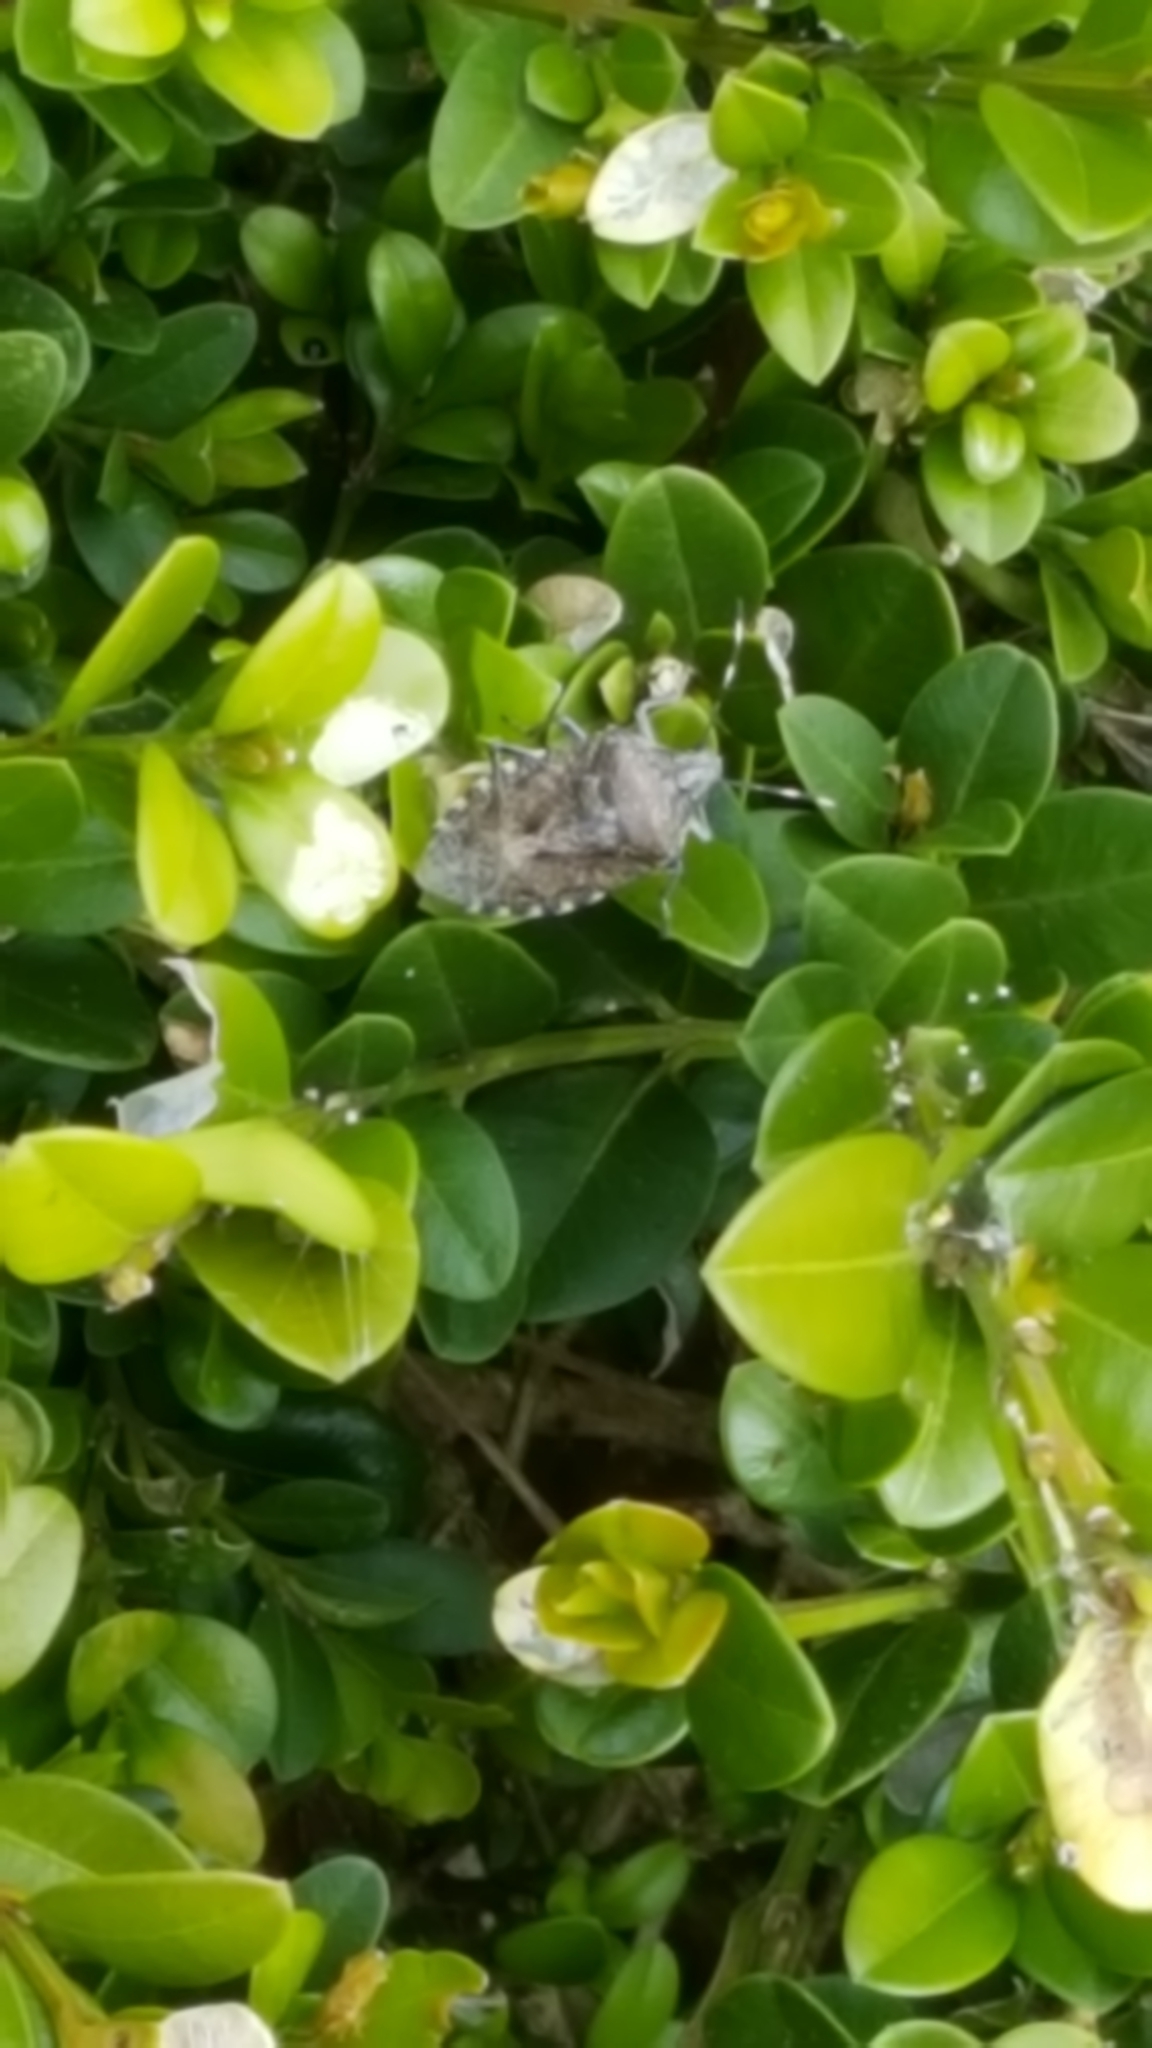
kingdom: Animalia
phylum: Arthropoda
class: Insecta
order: Hemiptera
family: Pentatomidae
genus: Rhaphigaster
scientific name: Rhaphigaster nebulosa
